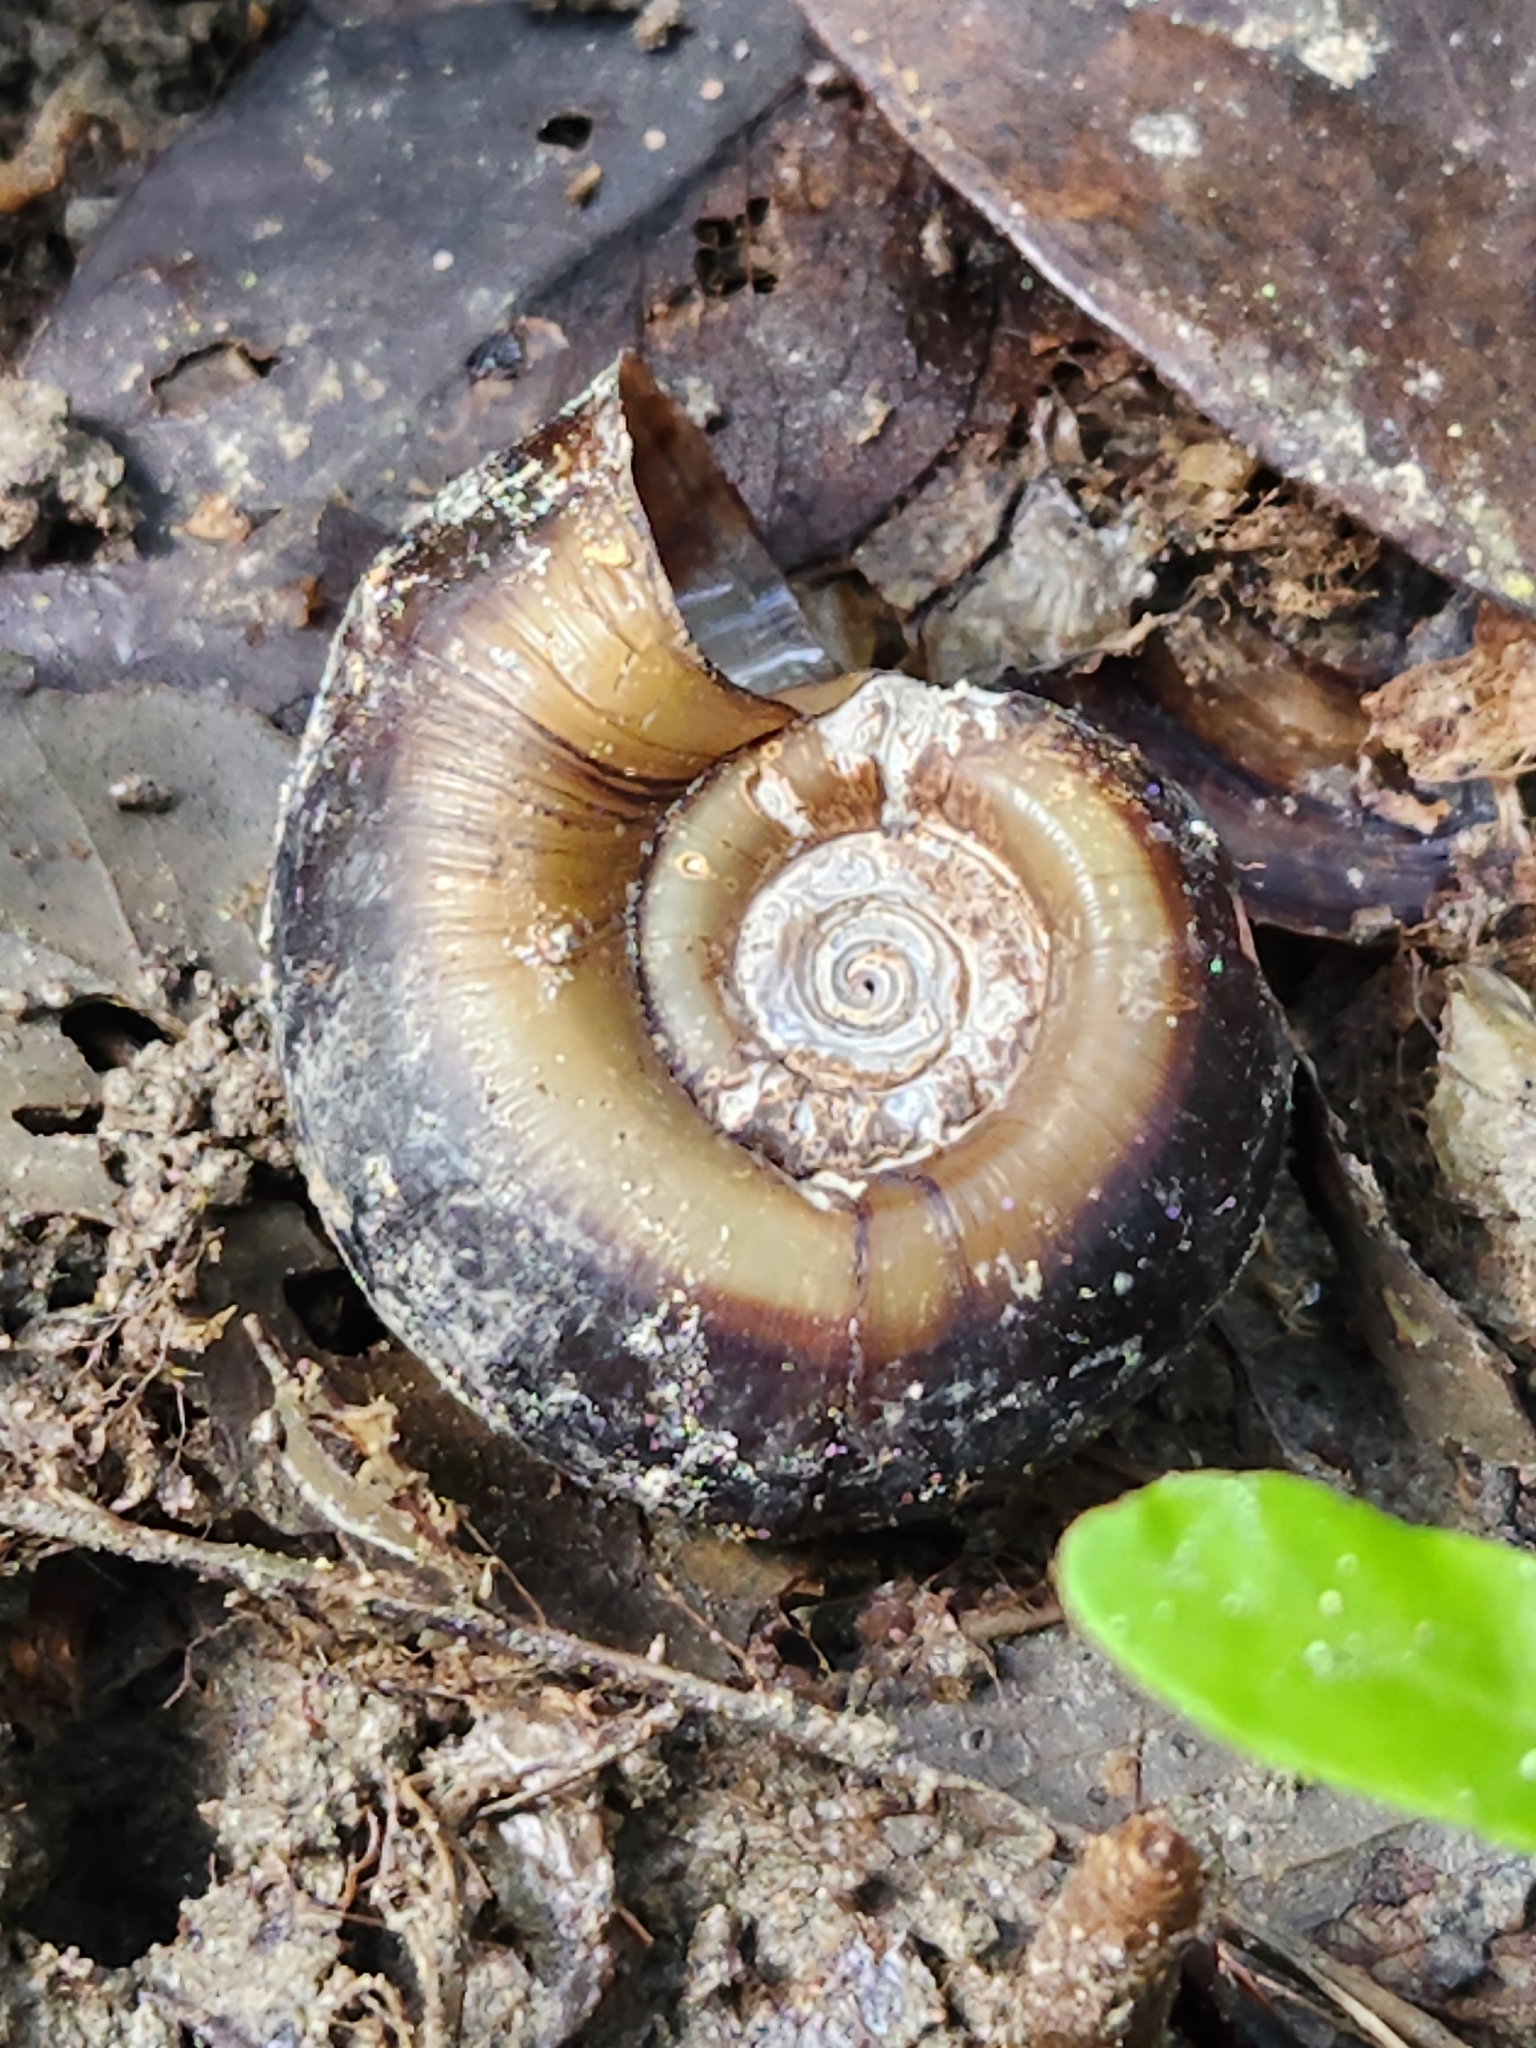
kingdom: Animalia
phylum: Mollusca
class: Gastropoda
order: Architaenioglossa
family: Ampullariidae
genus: Marisa
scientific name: Marisa cornuarietis
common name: Giant ramshorn snail
